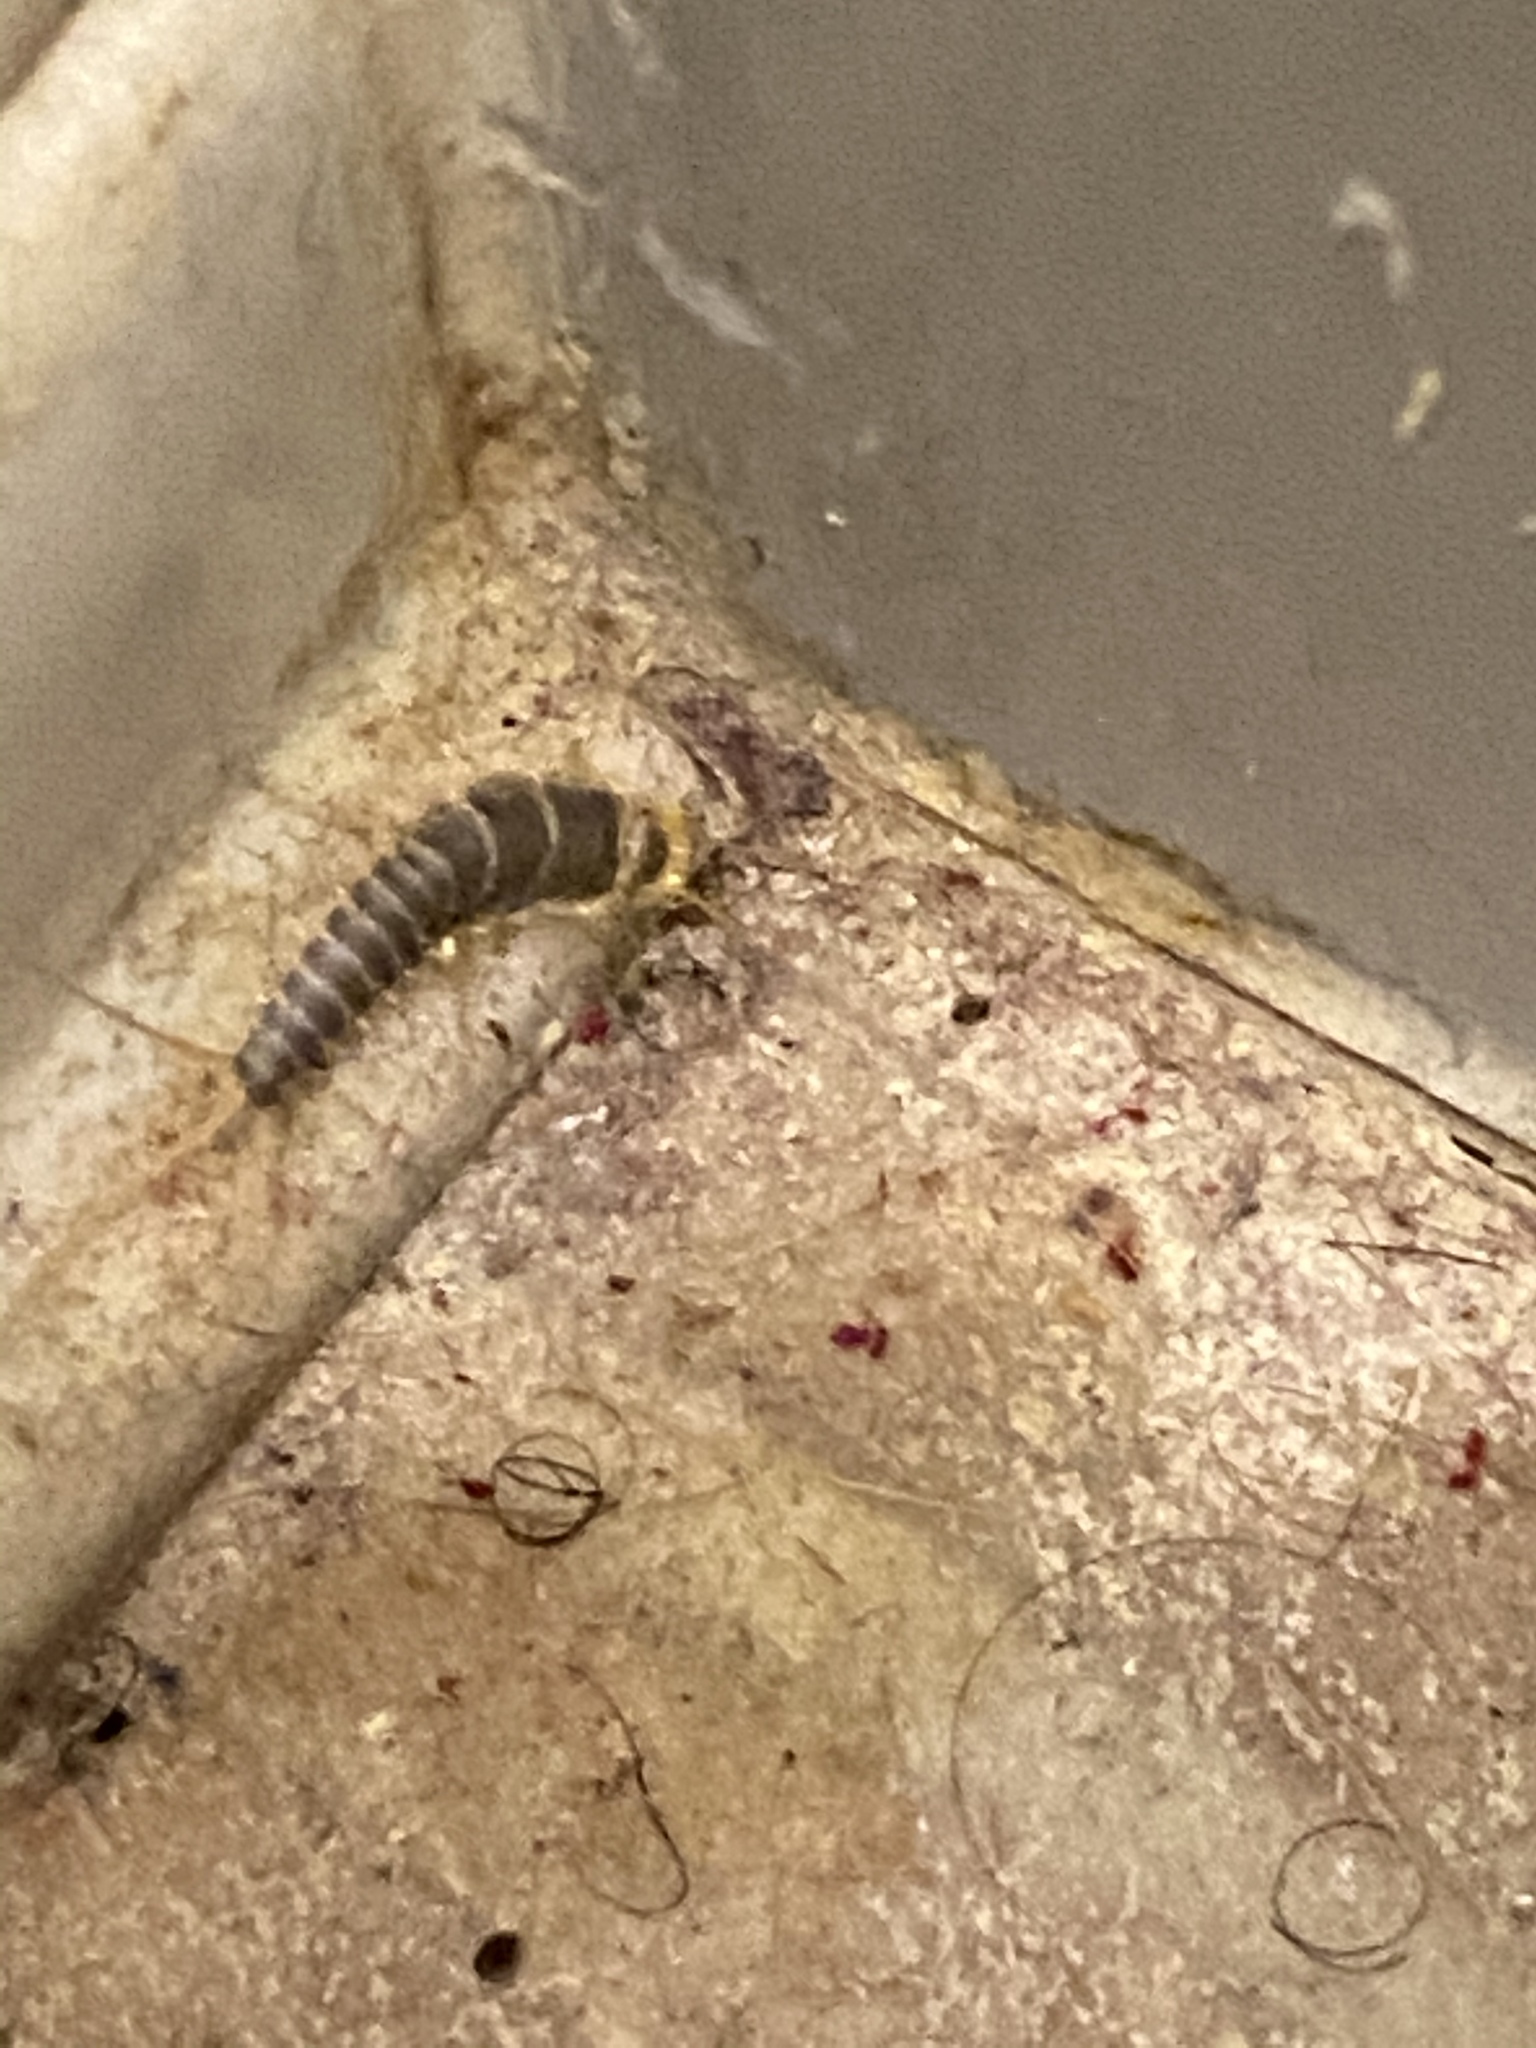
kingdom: Animalia
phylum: Arthropoda
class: Insecta
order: Zygentoma
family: Lepismatidae
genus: Ctenolepisma
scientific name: Ctenolepisma longicaudatum
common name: Silverfish
